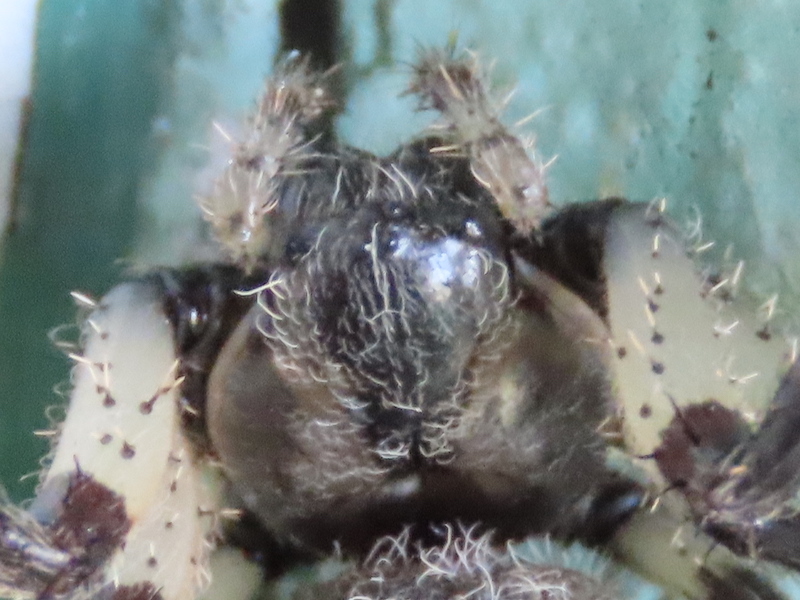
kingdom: Animalia
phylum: Arthropoda
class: Arachnida
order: Araneae
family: Araneidae
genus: Araneus
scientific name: Araneus trifolium
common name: Shamrock orbweaver
